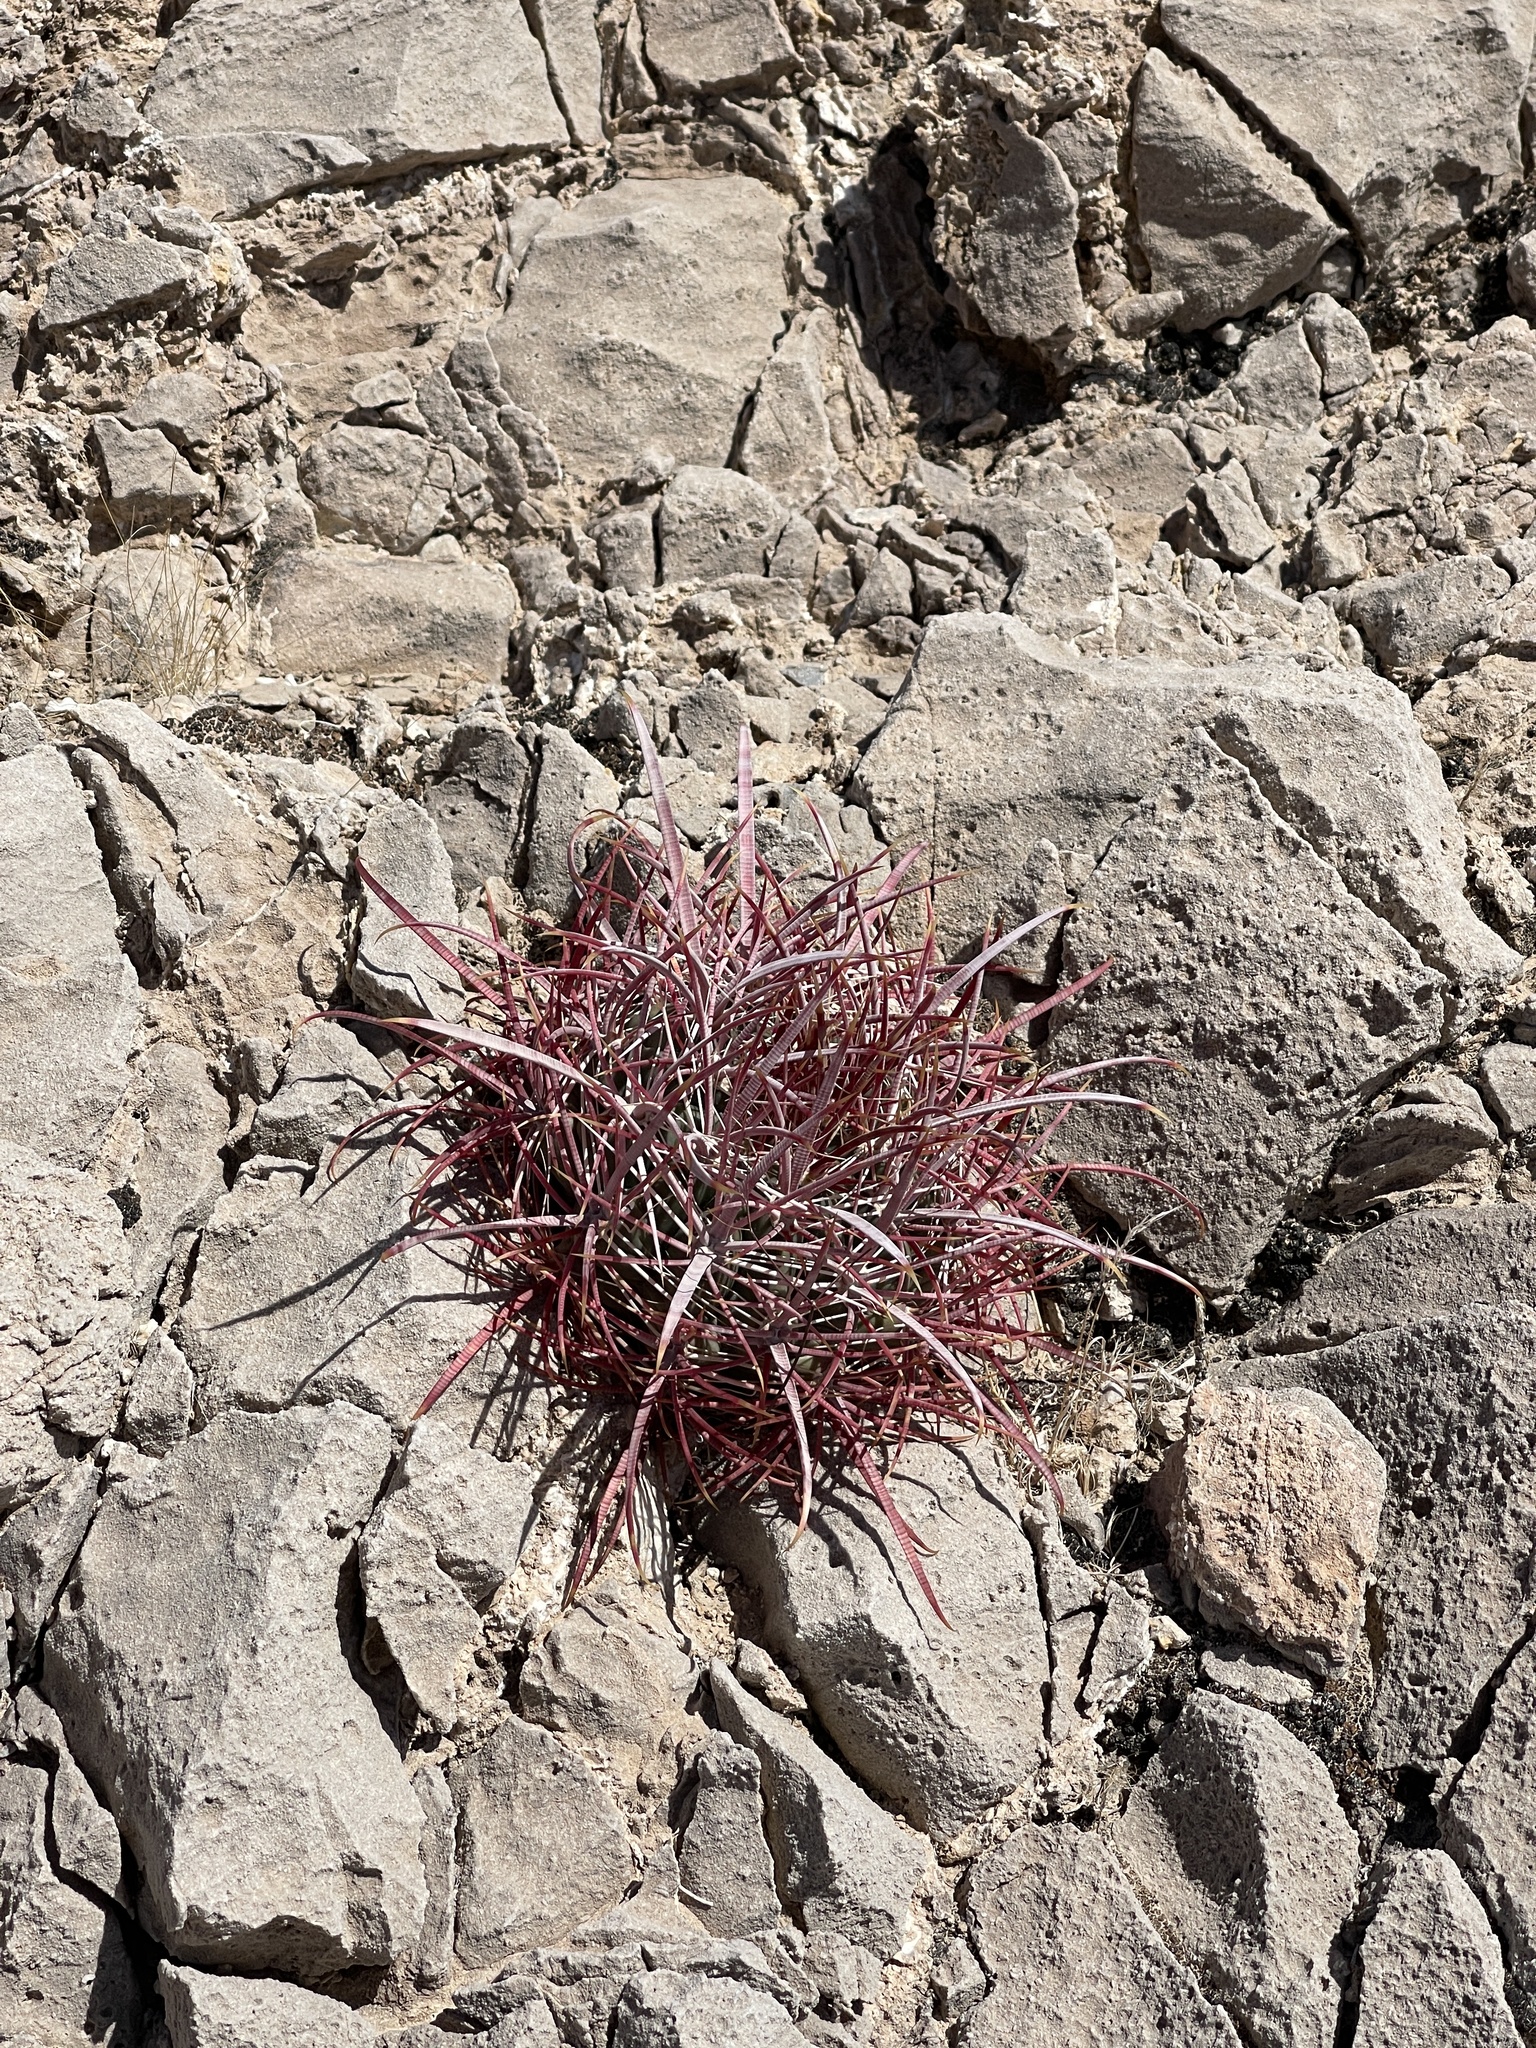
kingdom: Plantae
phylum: Tracheophyta
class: Magnoliopsida
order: Caryophyllales
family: Cactaceae
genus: Ferocactus
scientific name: Ferocactus cylindraceus
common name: California barrel cactus
